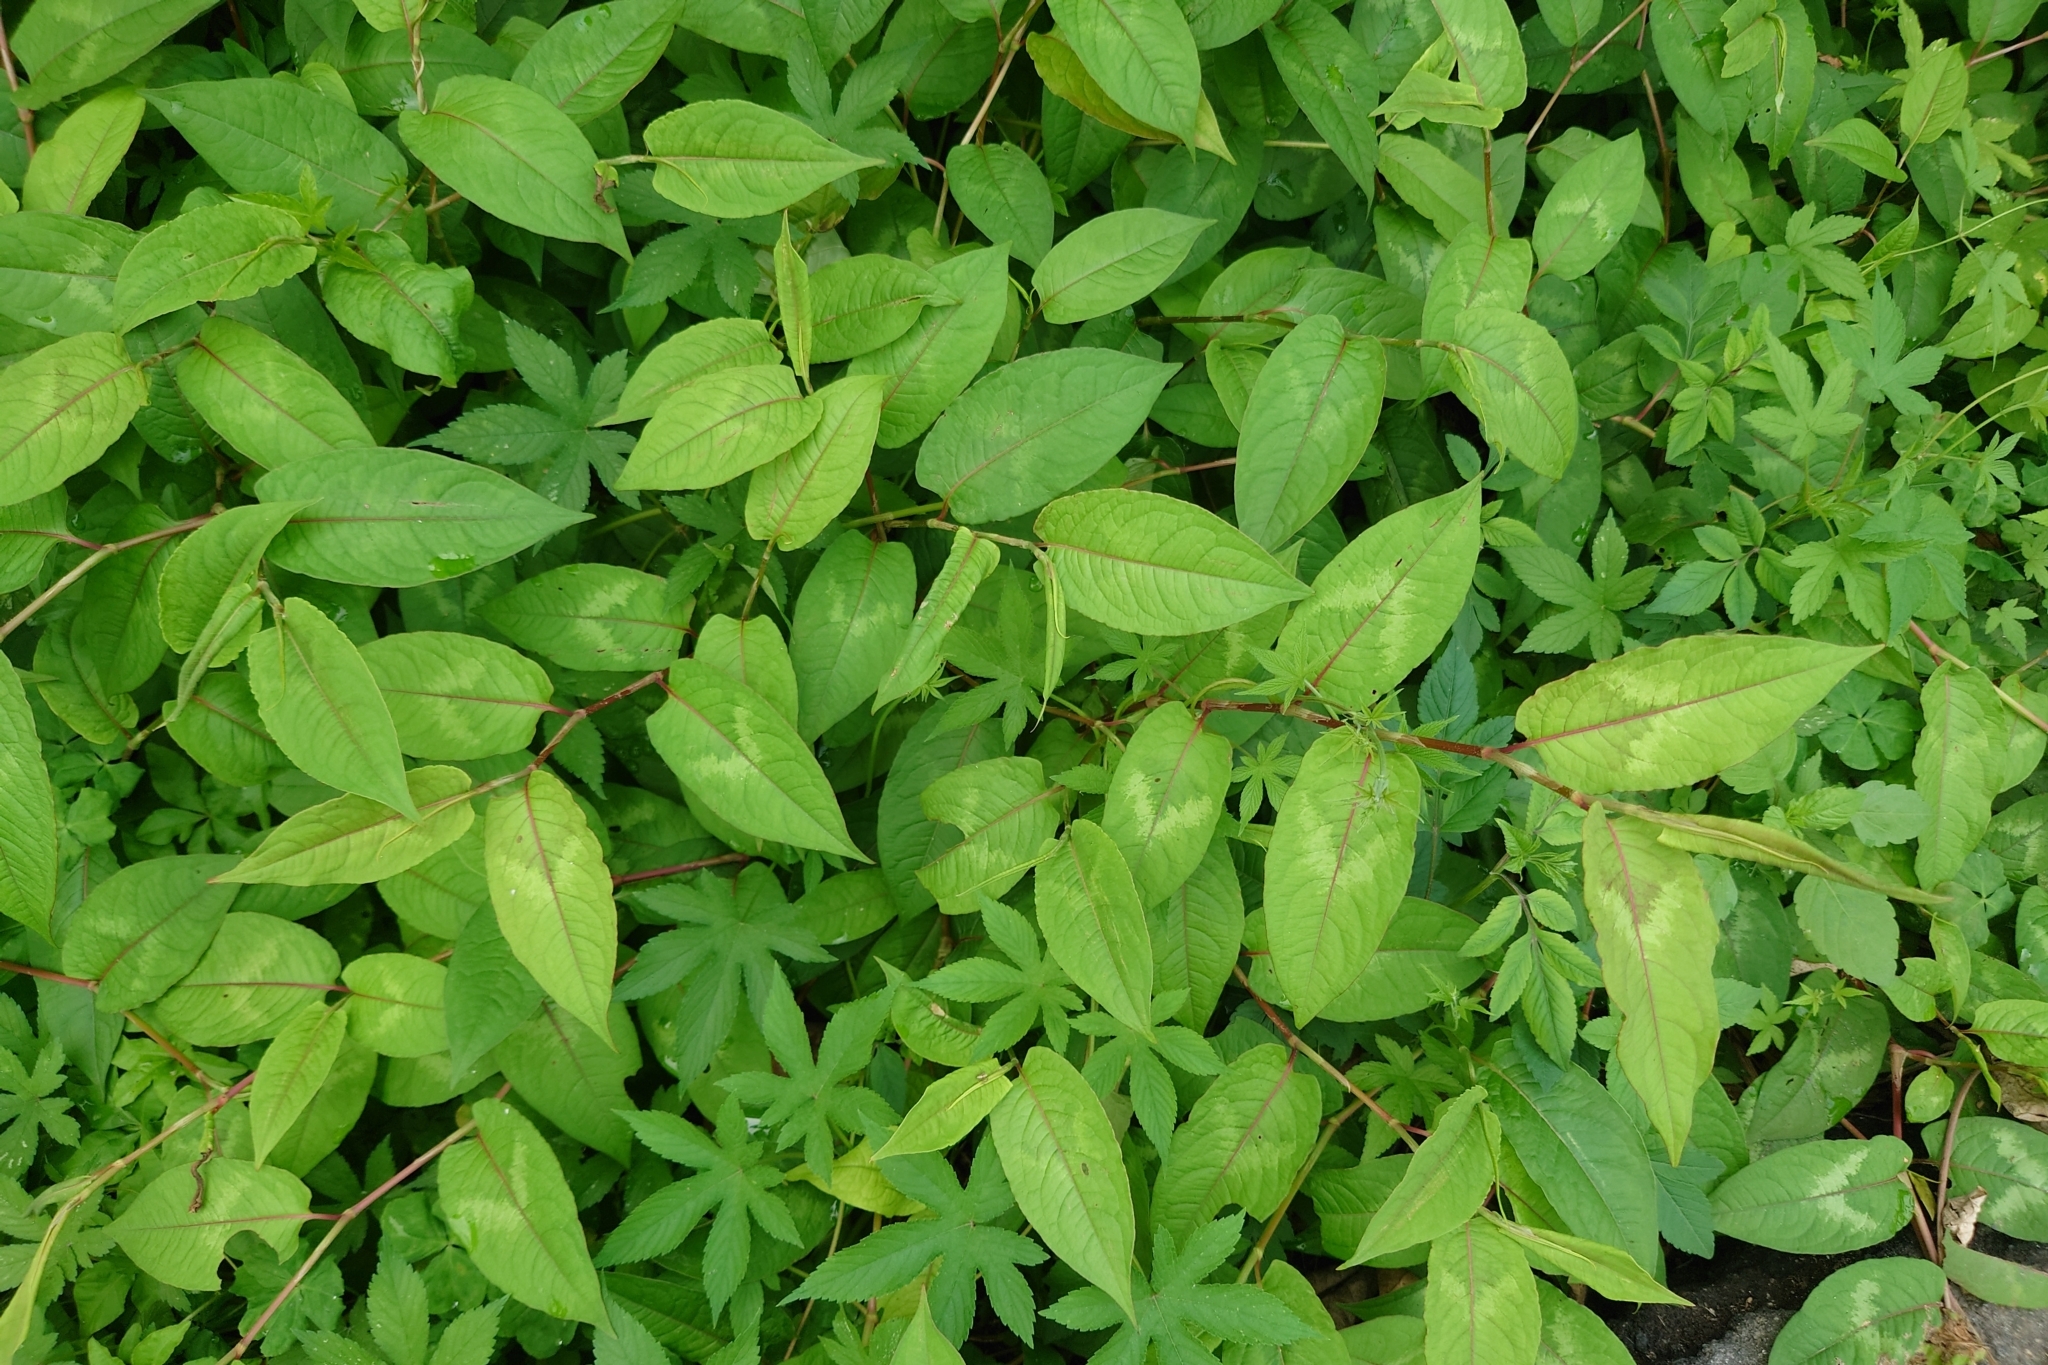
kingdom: Plantae
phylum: Tracheophyta
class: Magnoliopsida
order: Caryophyllales
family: Polygonaceae
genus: Persicaria
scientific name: Persicaria chinensis
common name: Chinese knotweed
